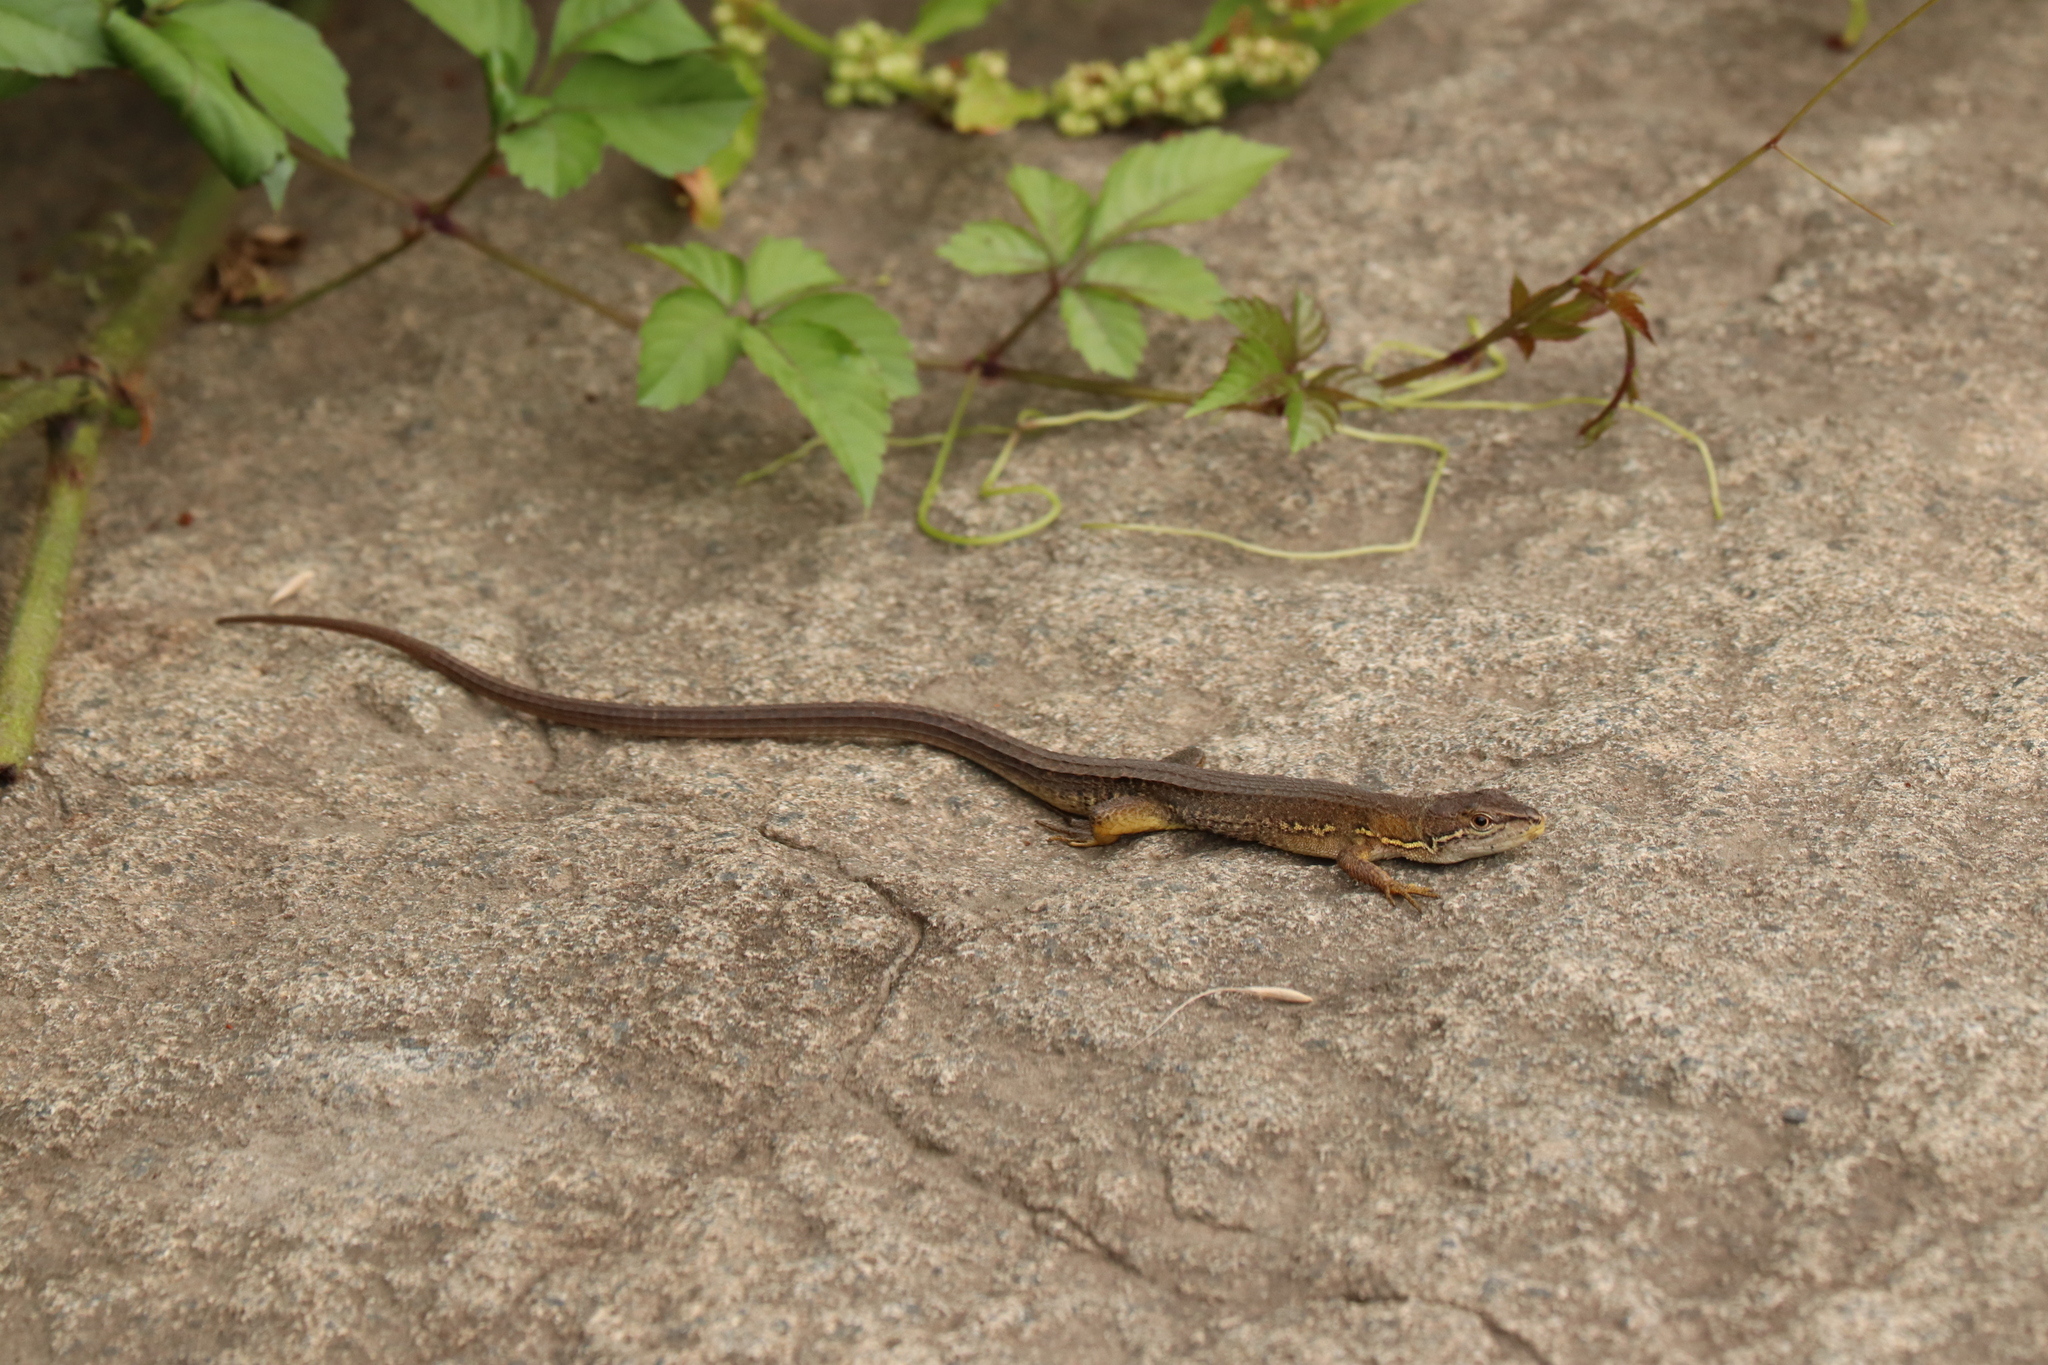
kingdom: Animalia
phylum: Chordata
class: Squamata
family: Lacertidae
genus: Takydromus
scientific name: Takydromus tachydromoides
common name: Japanese grass lizard
